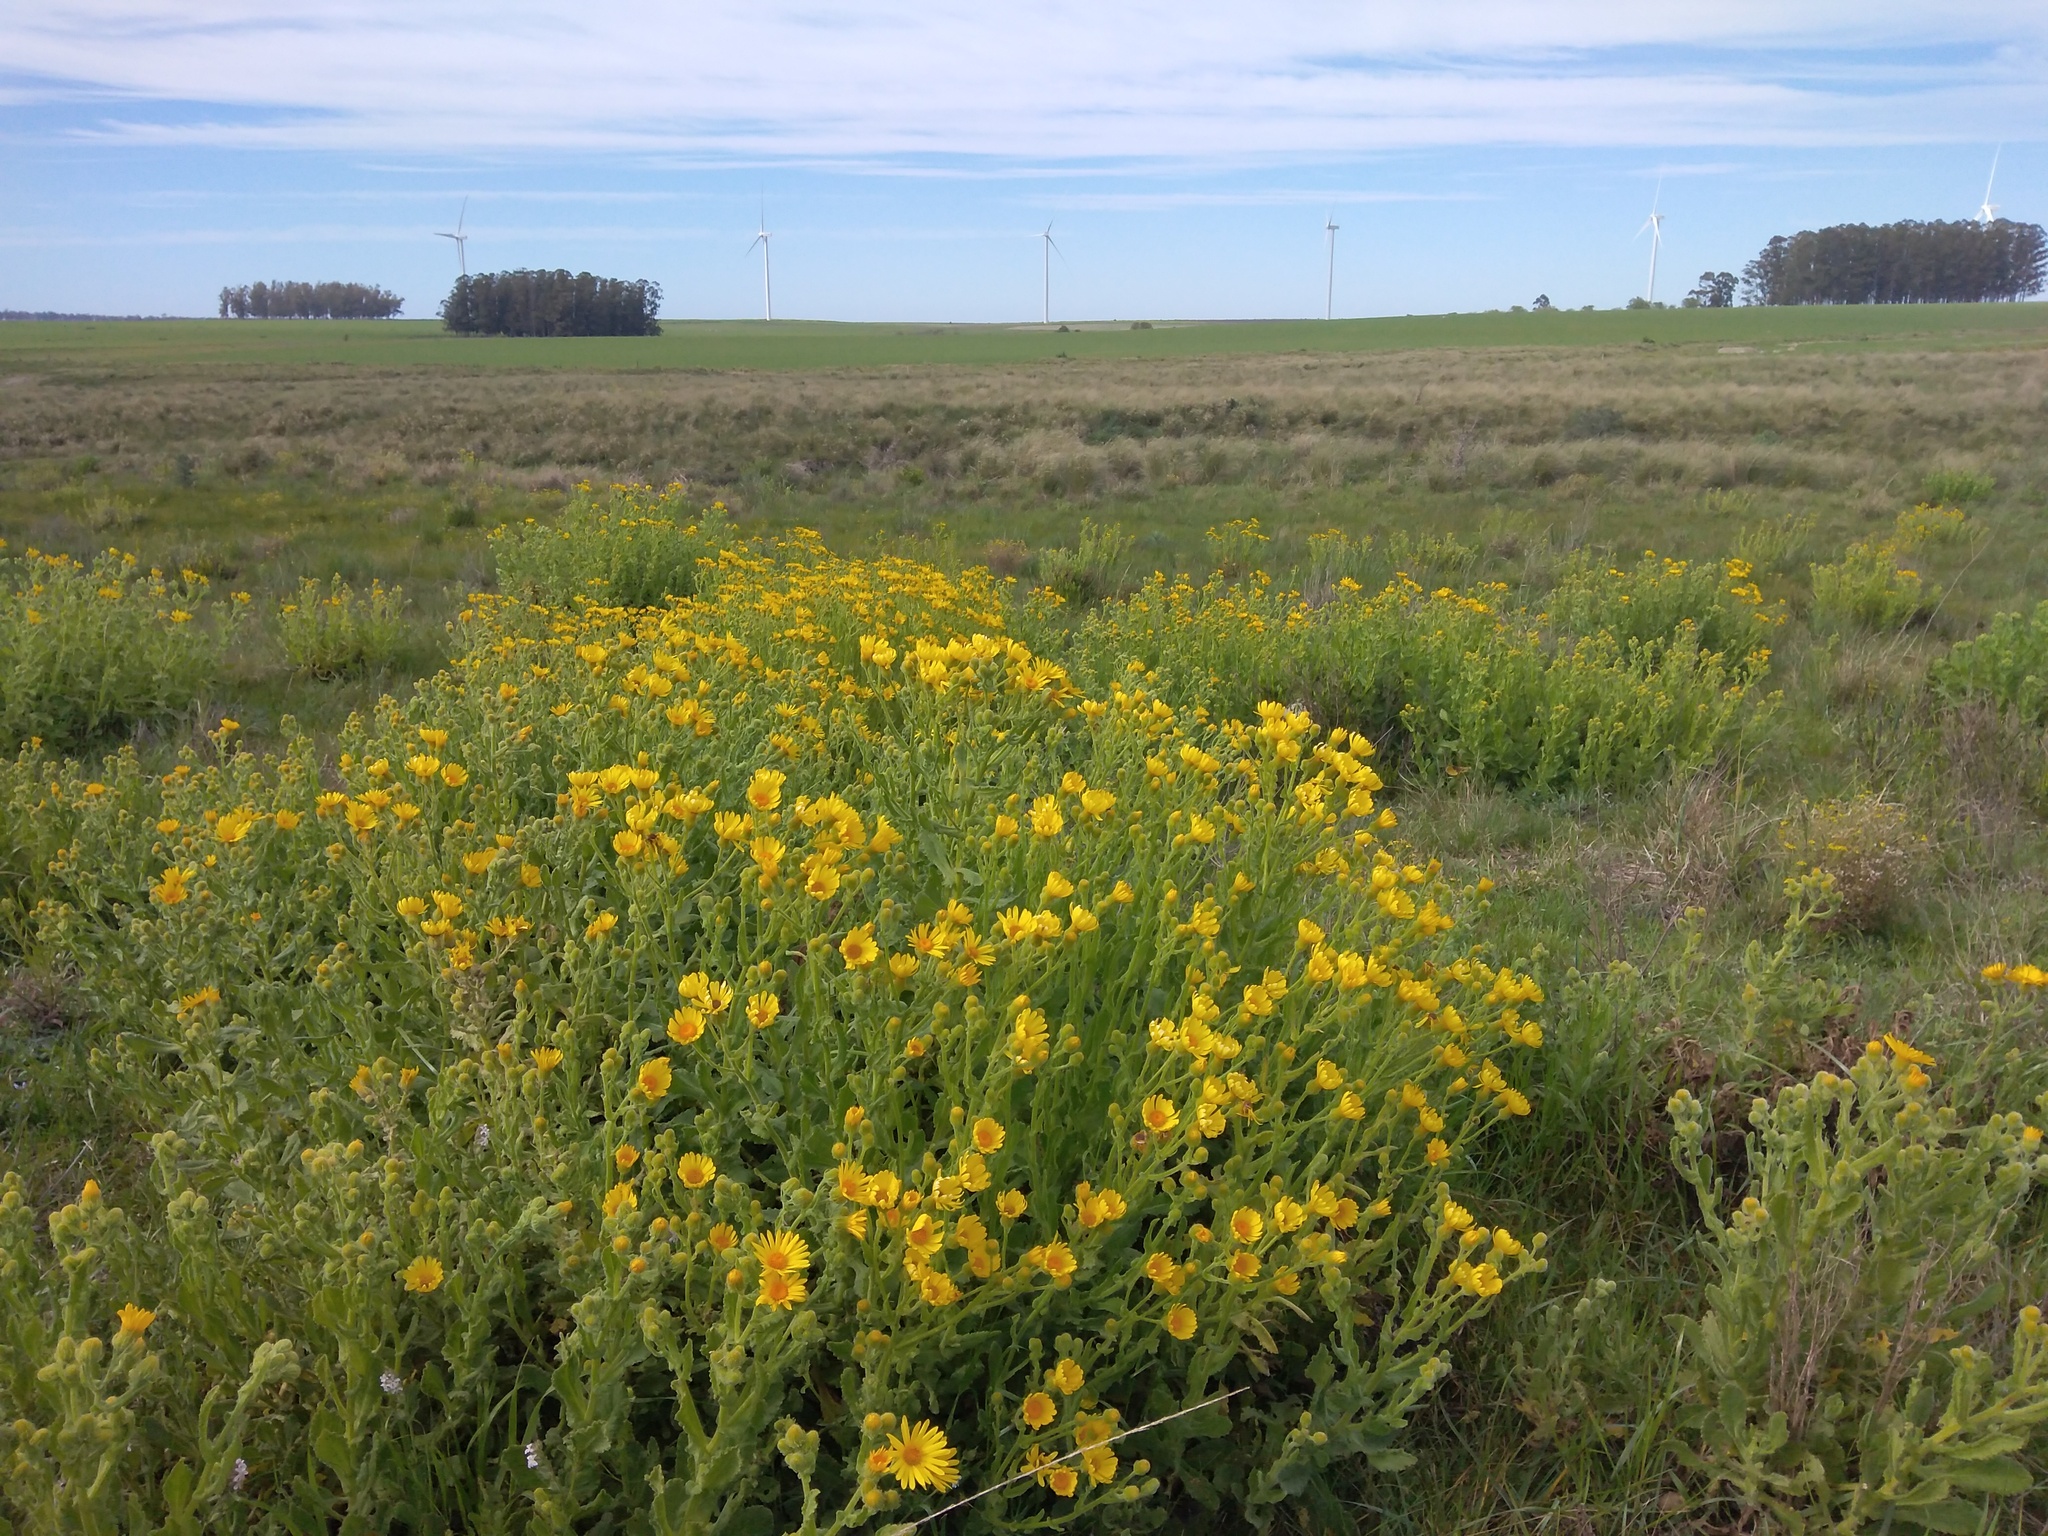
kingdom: Plantae
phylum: Tracheophyta
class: Magnoliopsida
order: Asterales
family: Asteraceae
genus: Senecio
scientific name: Senecio selloi
